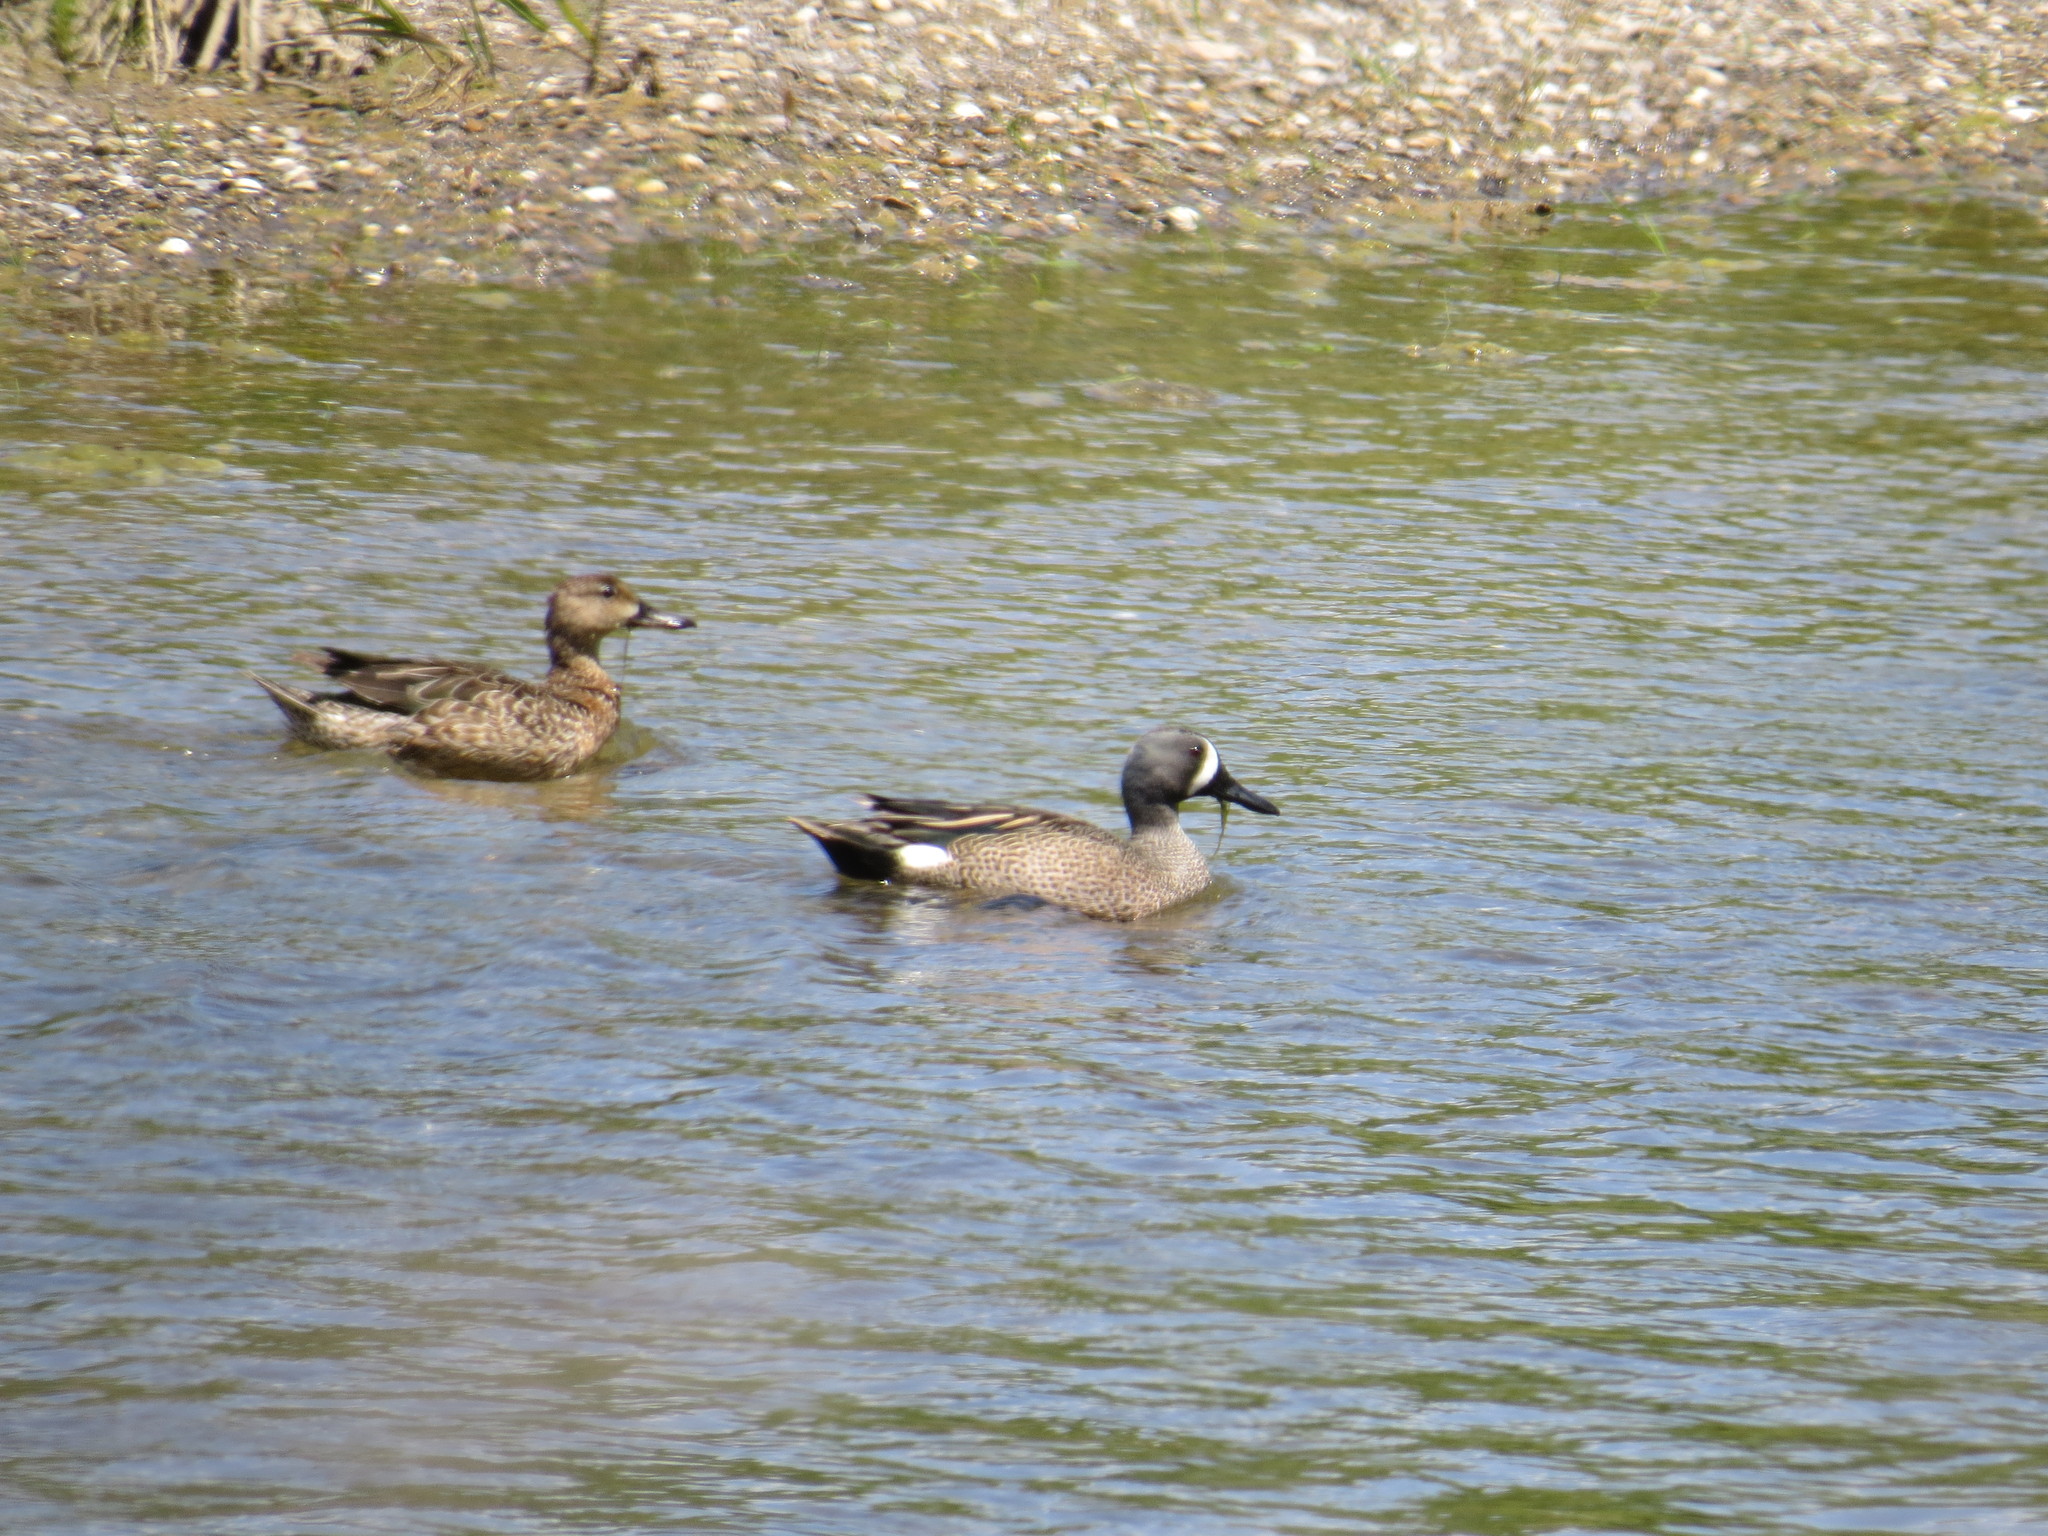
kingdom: Animalia
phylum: Chordata
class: Aves
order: Anseriformes
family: Anatidae
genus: Spatula
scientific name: Spatula discors
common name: Blue-winged teal
